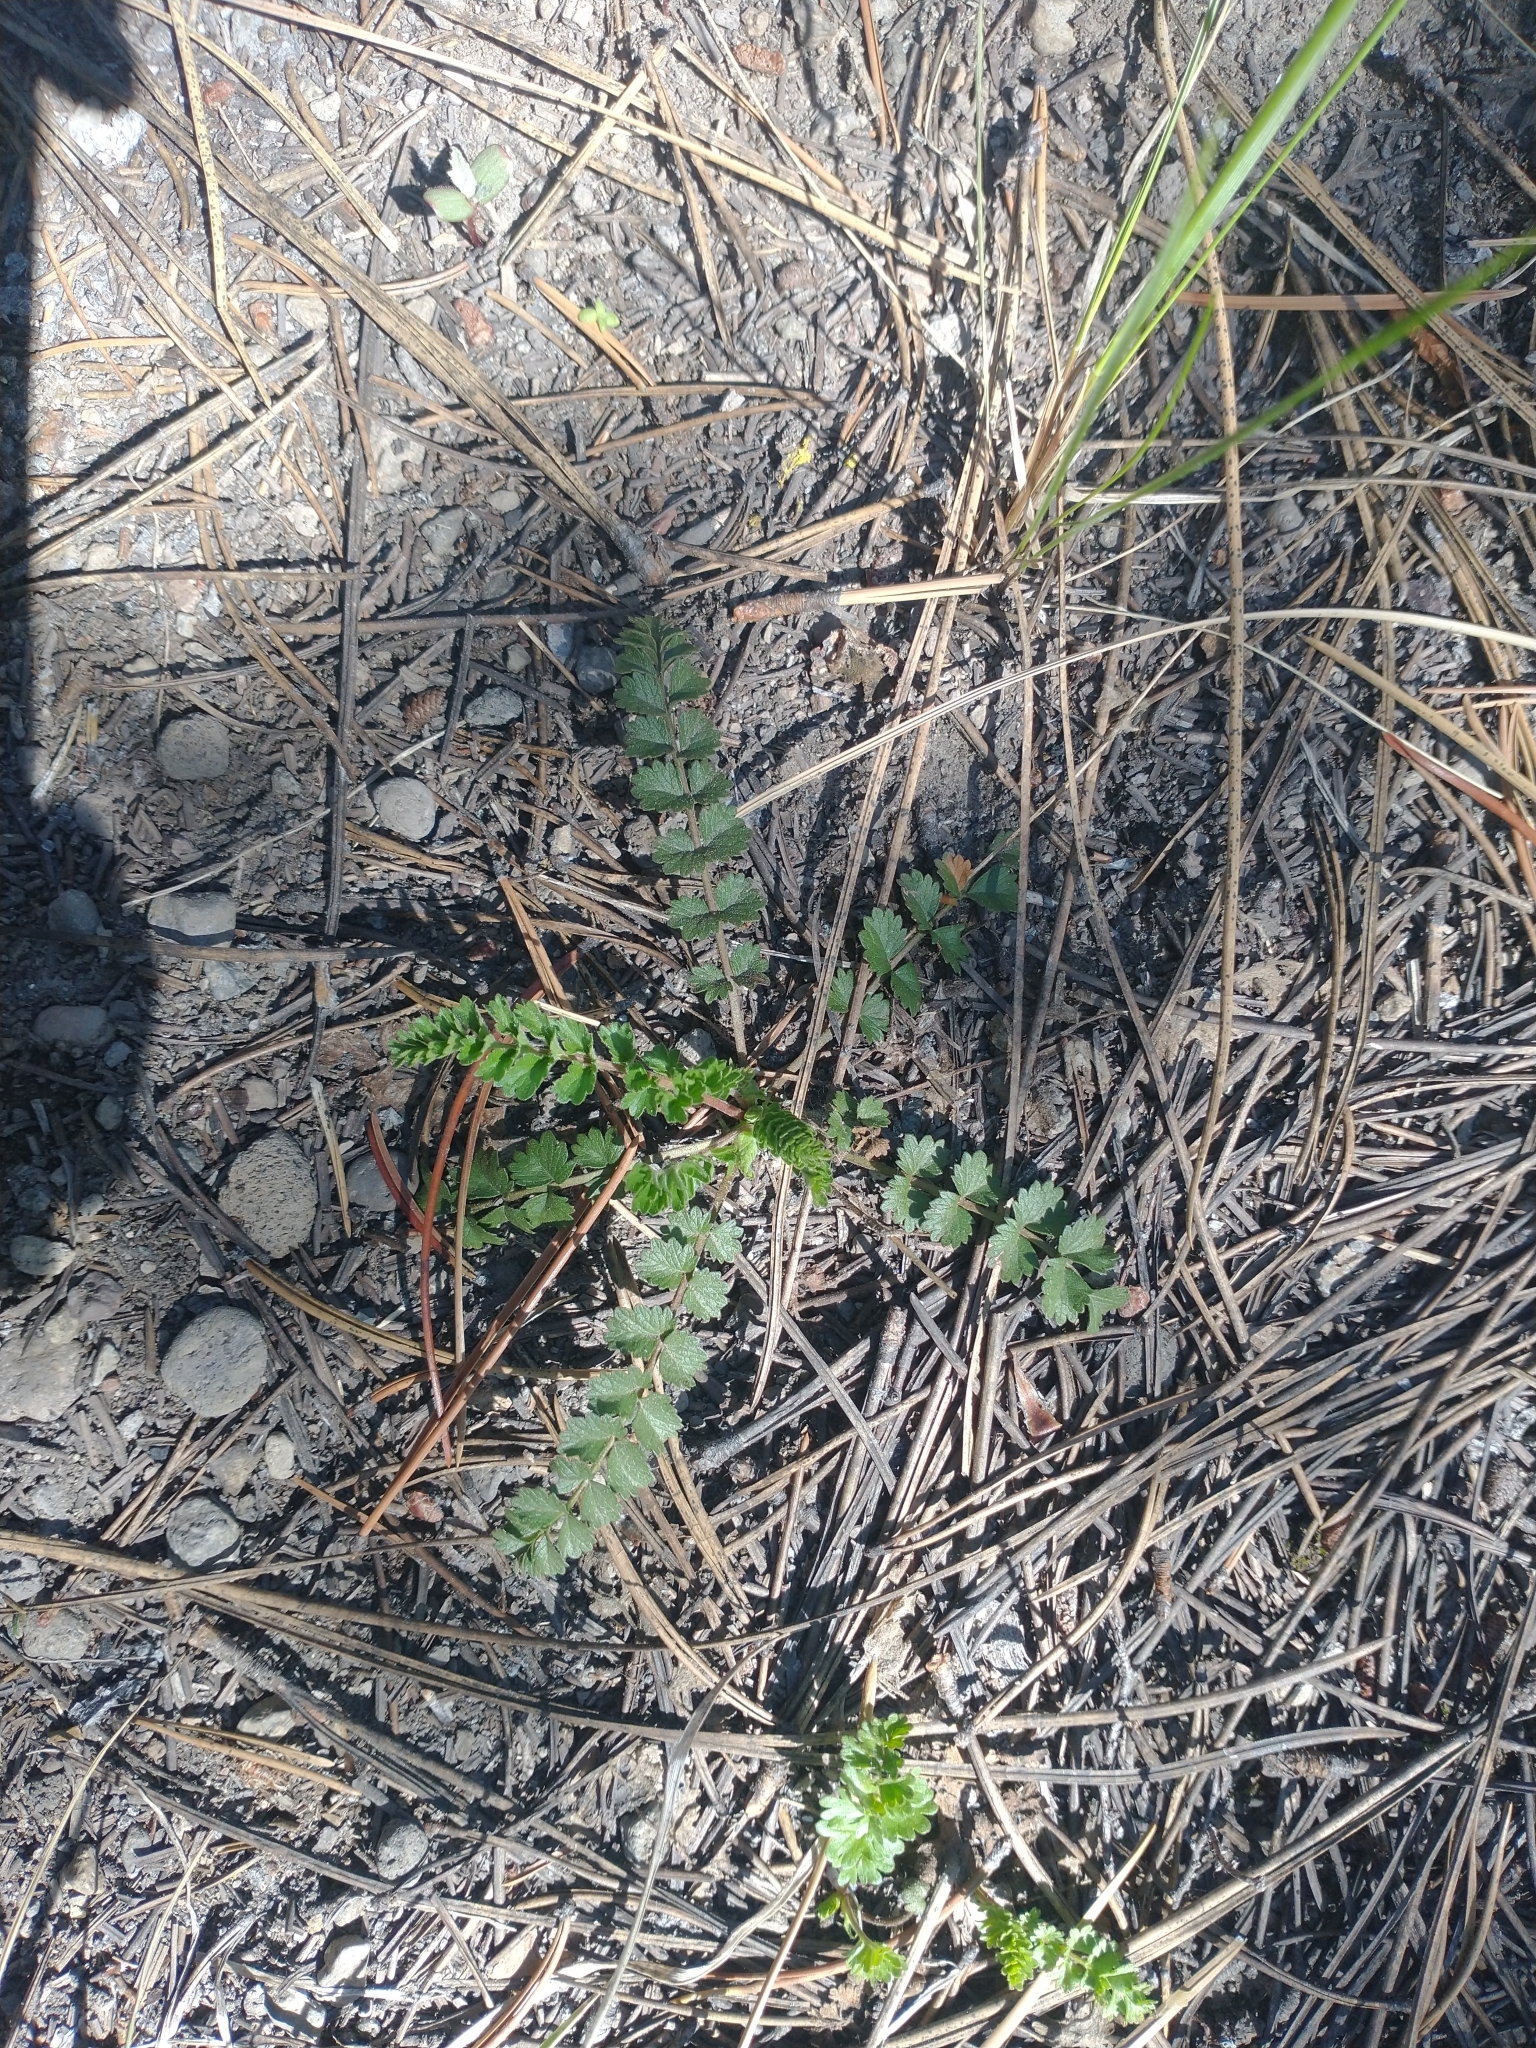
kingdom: Plantae
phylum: Tracheophyta
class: Magnoliopsida
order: Rosales
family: Rosaceae
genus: Potentilla
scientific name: Potentilla douglasii
